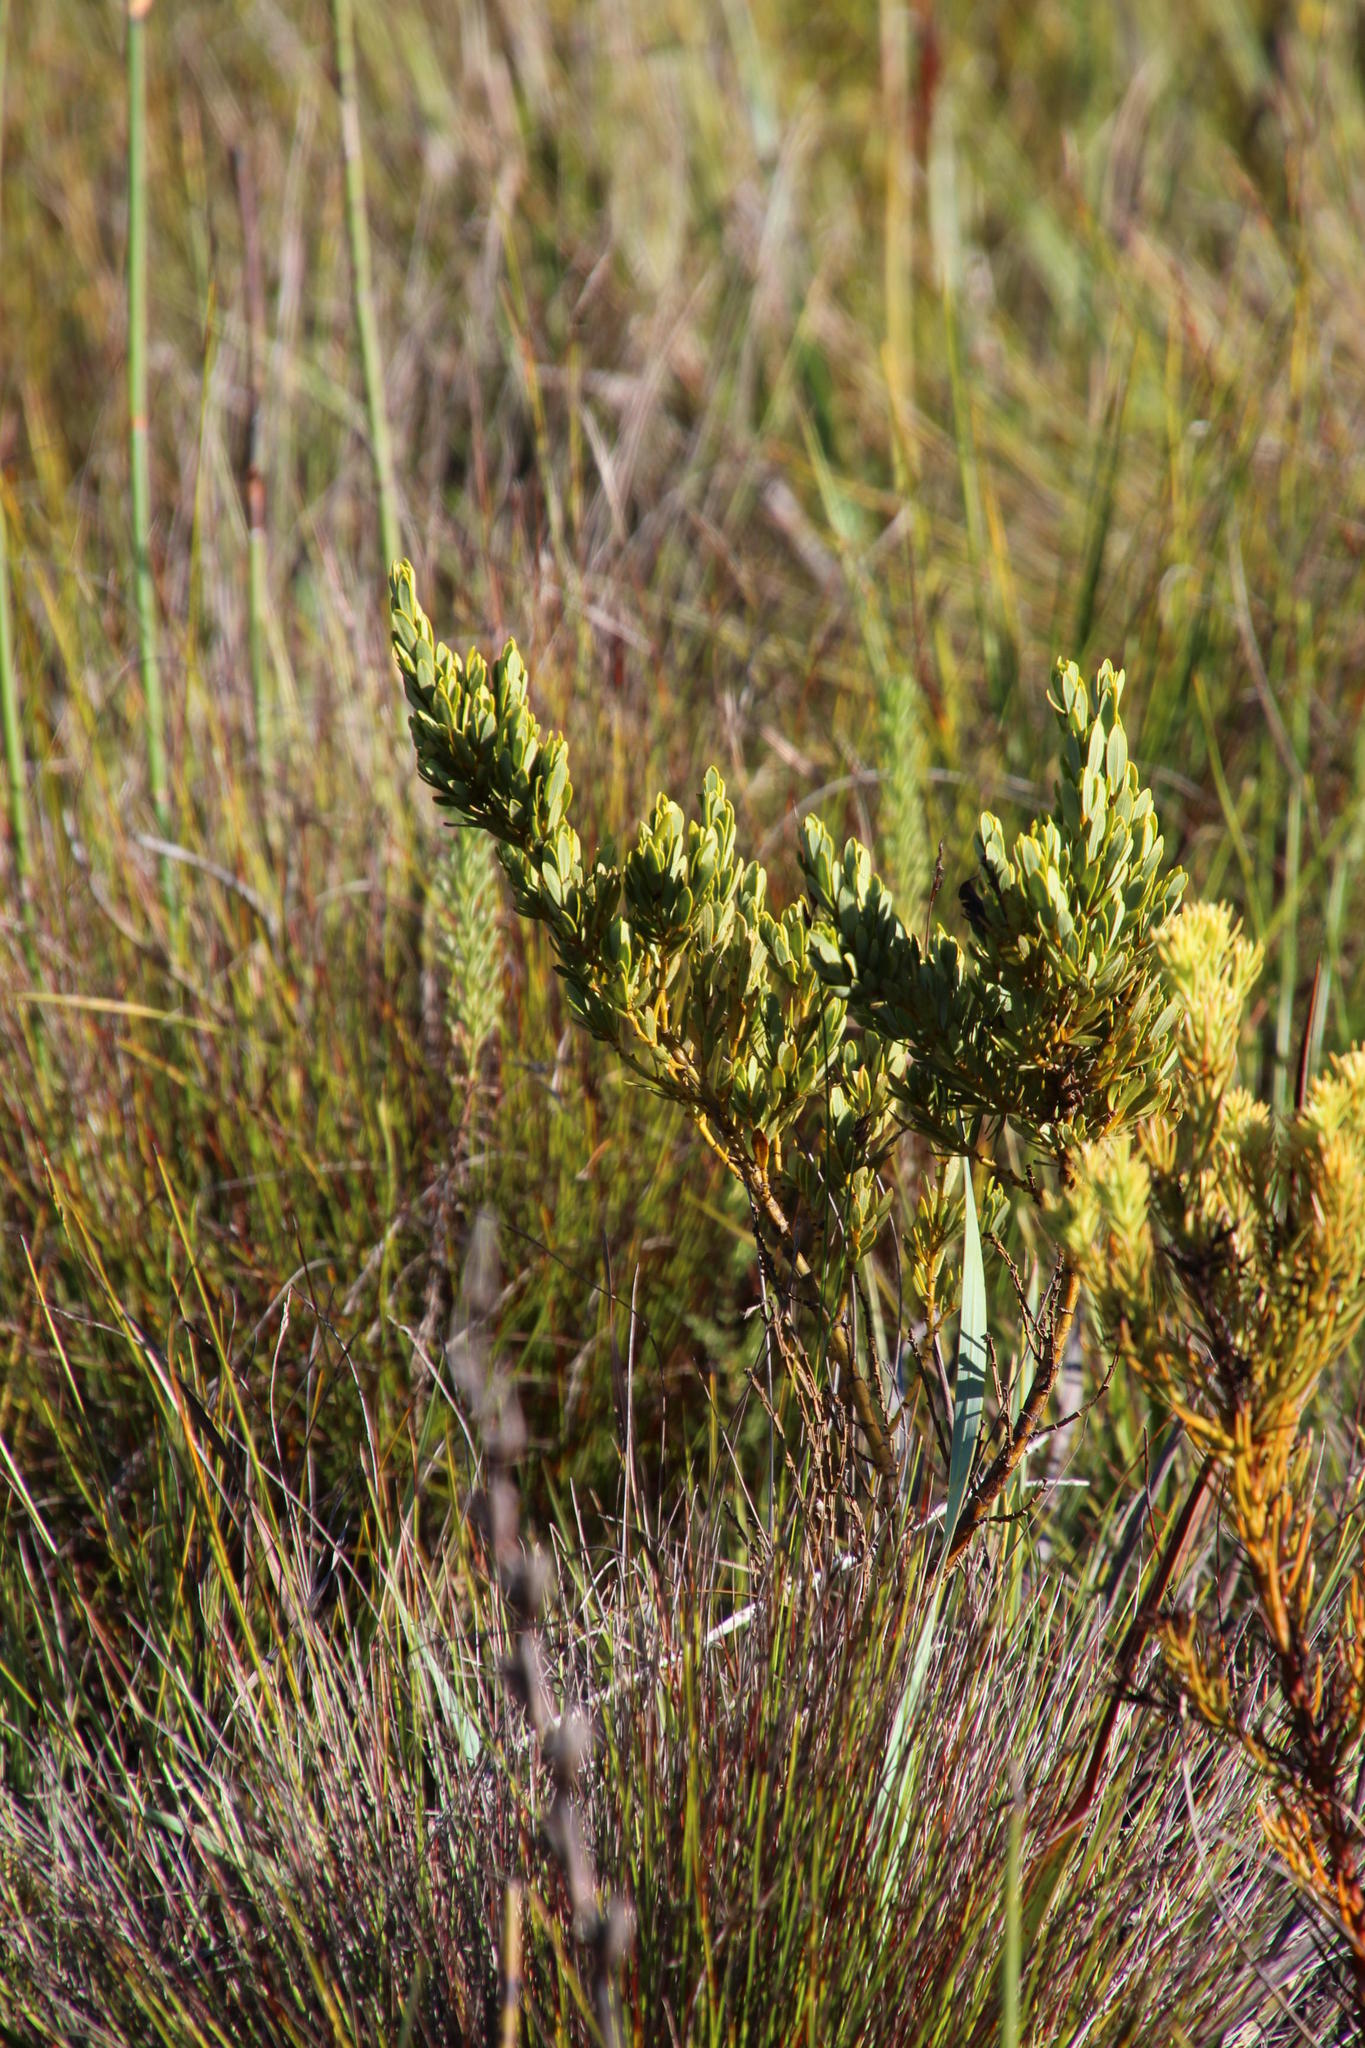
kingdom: Plantae
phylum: Tracheophyta
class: Magnoliopsida
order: Fabales
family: Fabaceae
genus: Cyclopia
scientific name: Cyclopia subternata
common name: Honeybush tea
